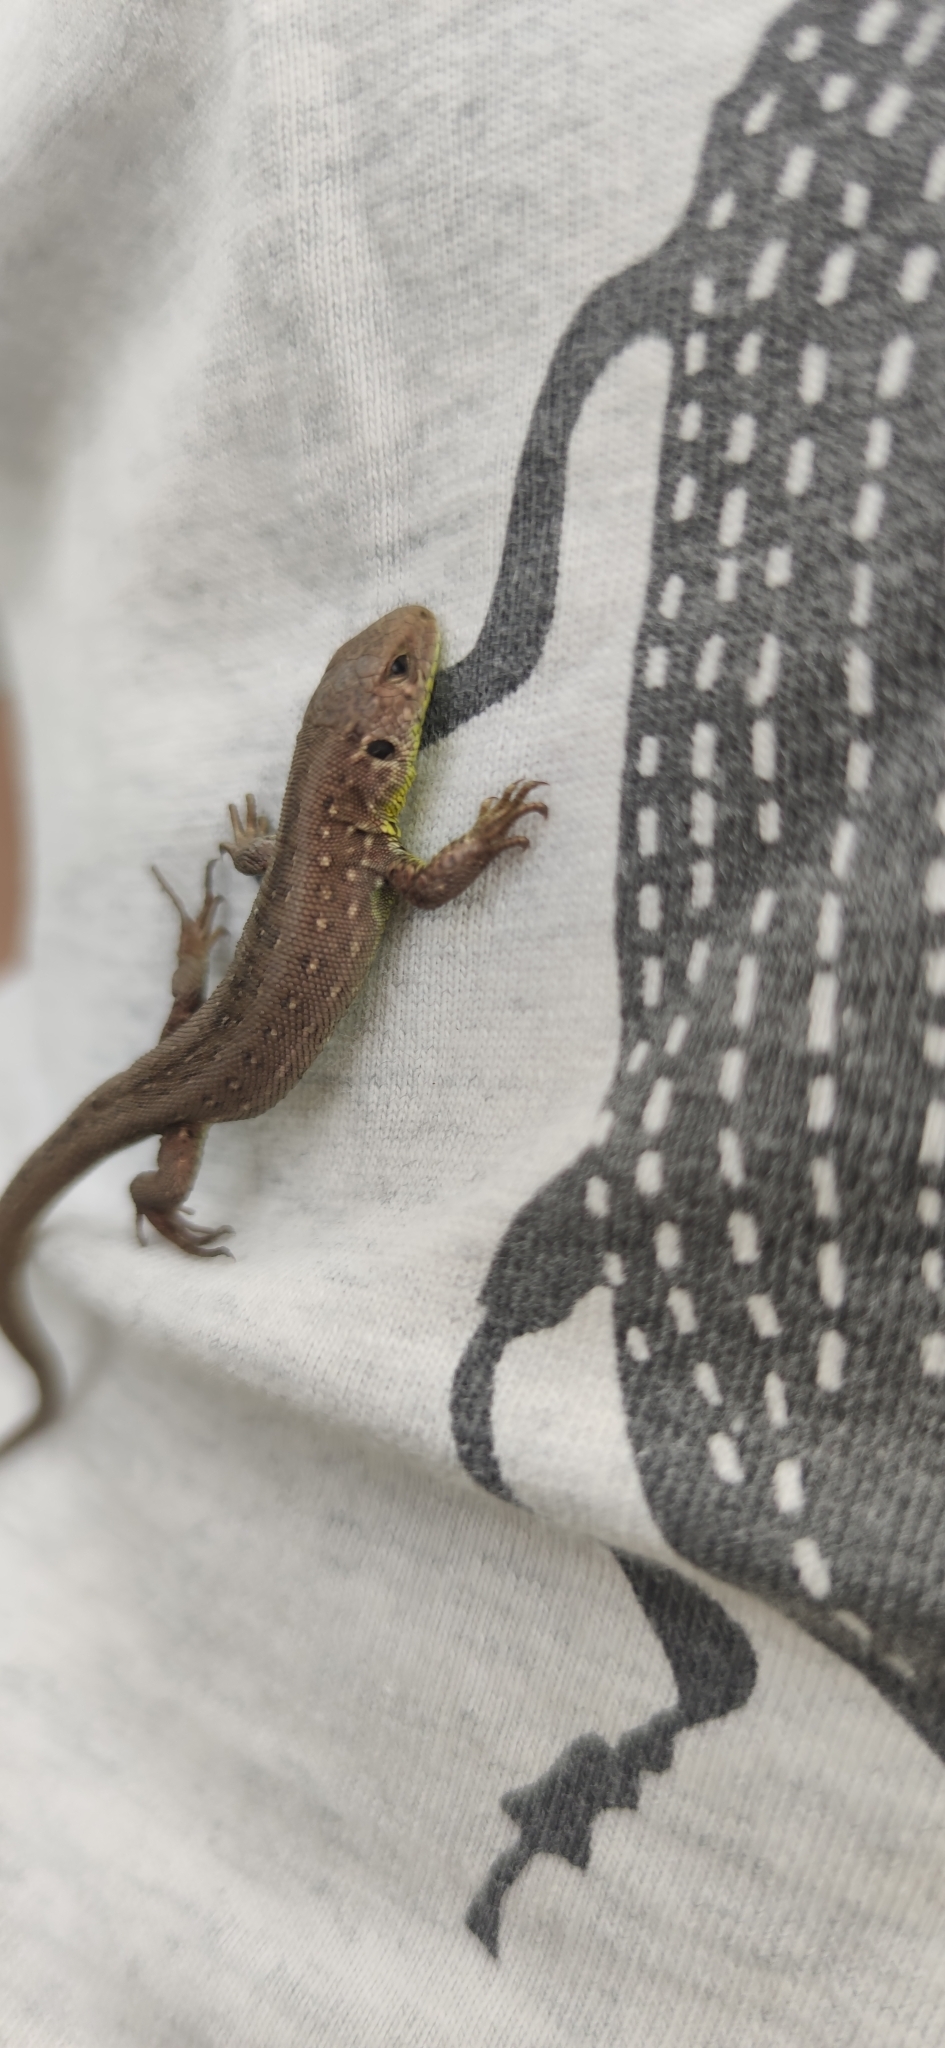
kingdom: Animalia
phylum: Chordata
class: Squamata
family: Lacertidae
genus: Lacerta
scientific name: Lacerta agilis
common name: Sand lizard
